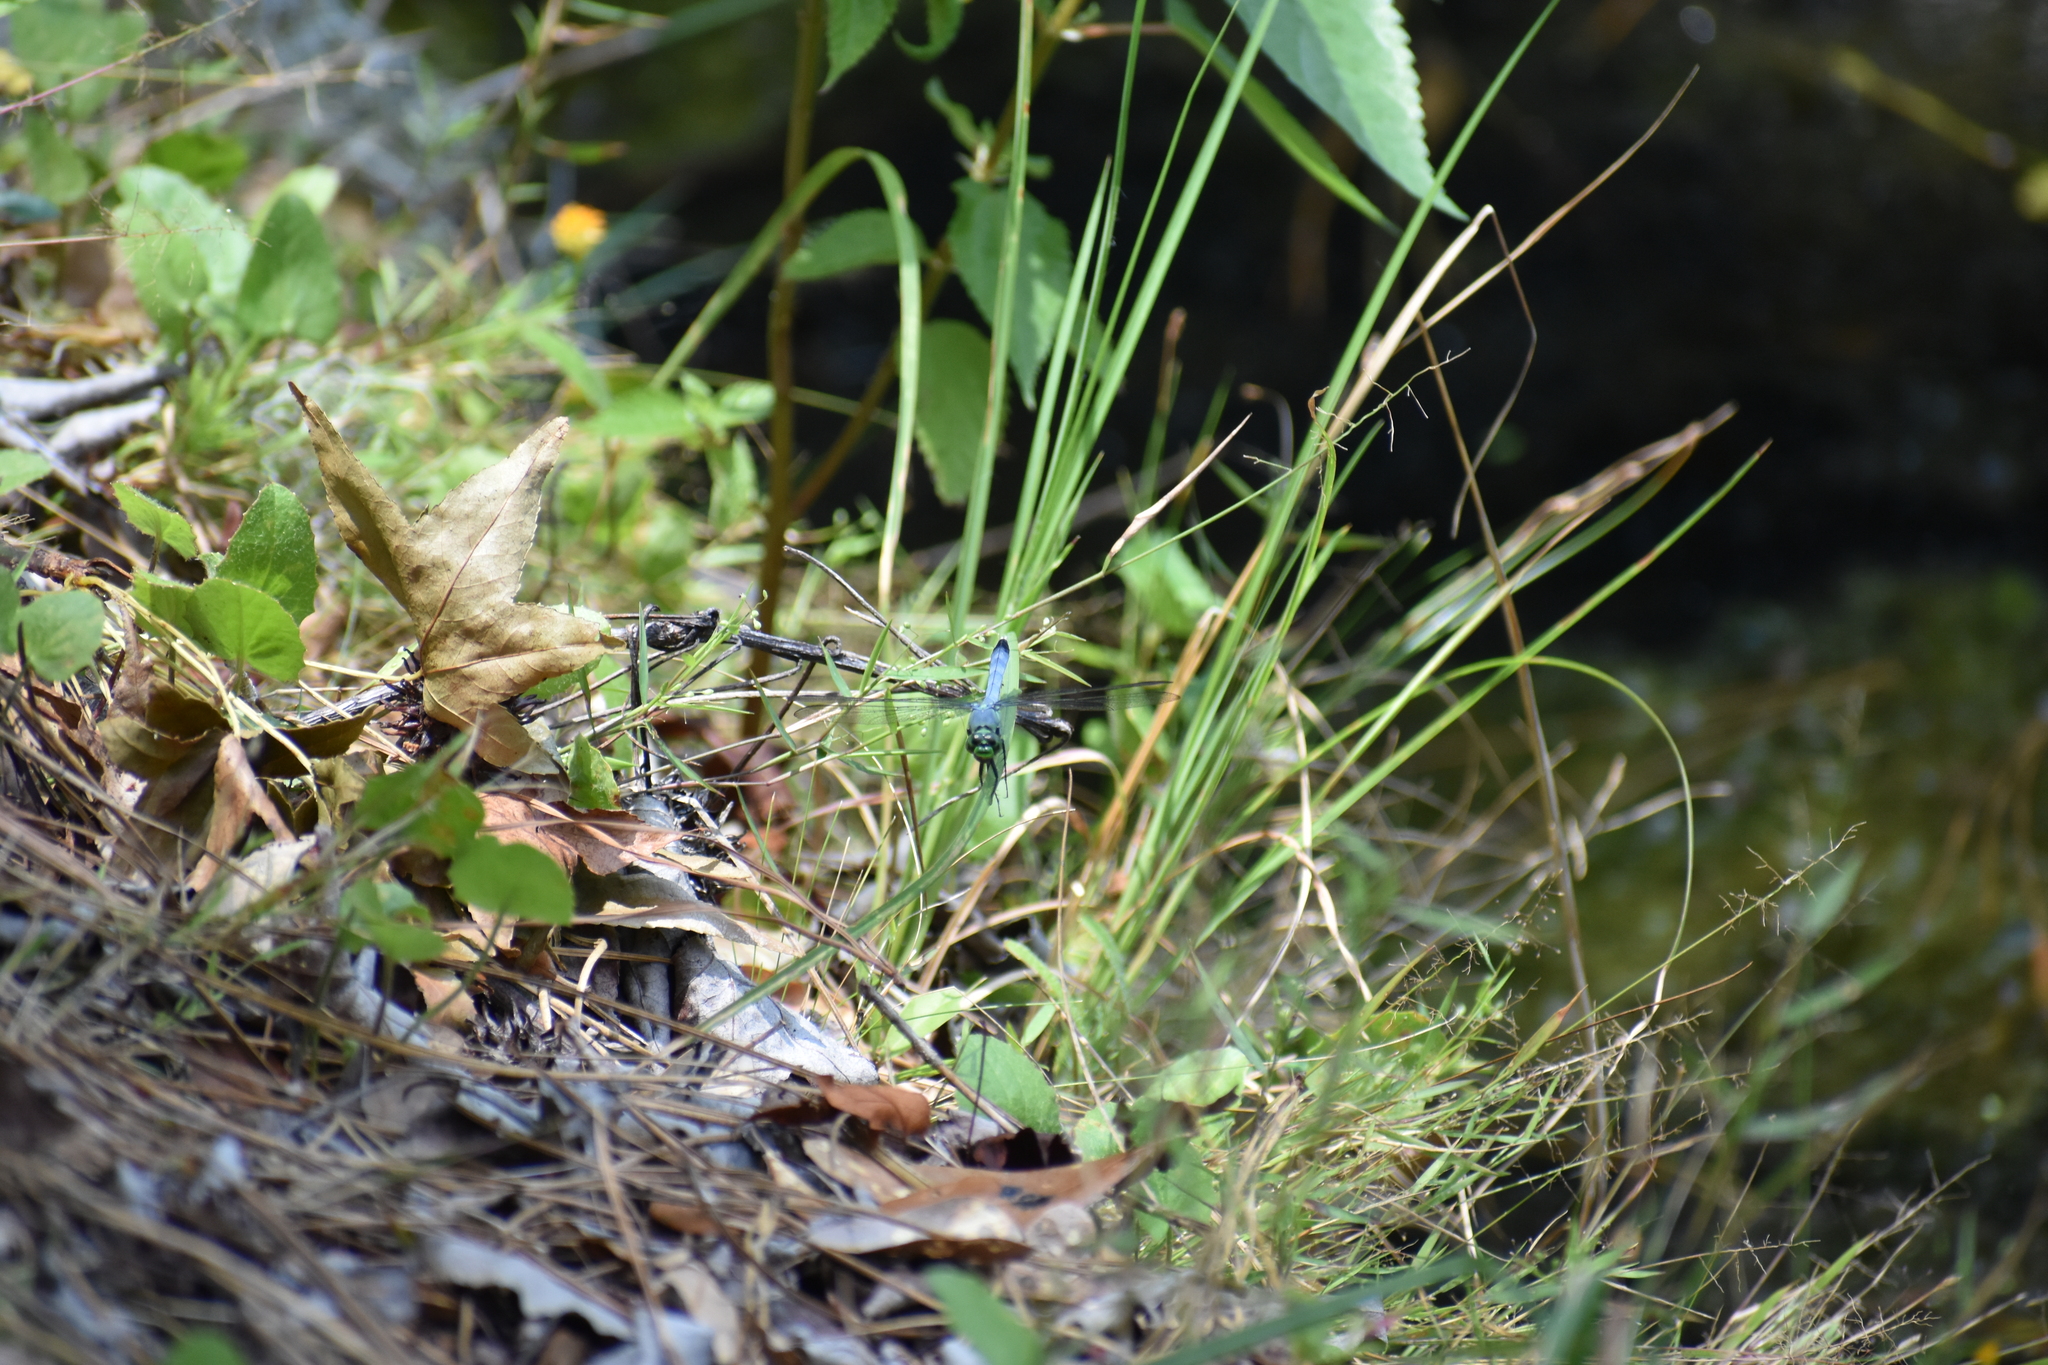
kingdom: Animalia
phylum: Arthropoda
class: Insecta
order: Odonata
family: Libellulidae
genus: Erythemis
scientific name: Erythemis simplicicollis
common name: Eastern pondhawk
